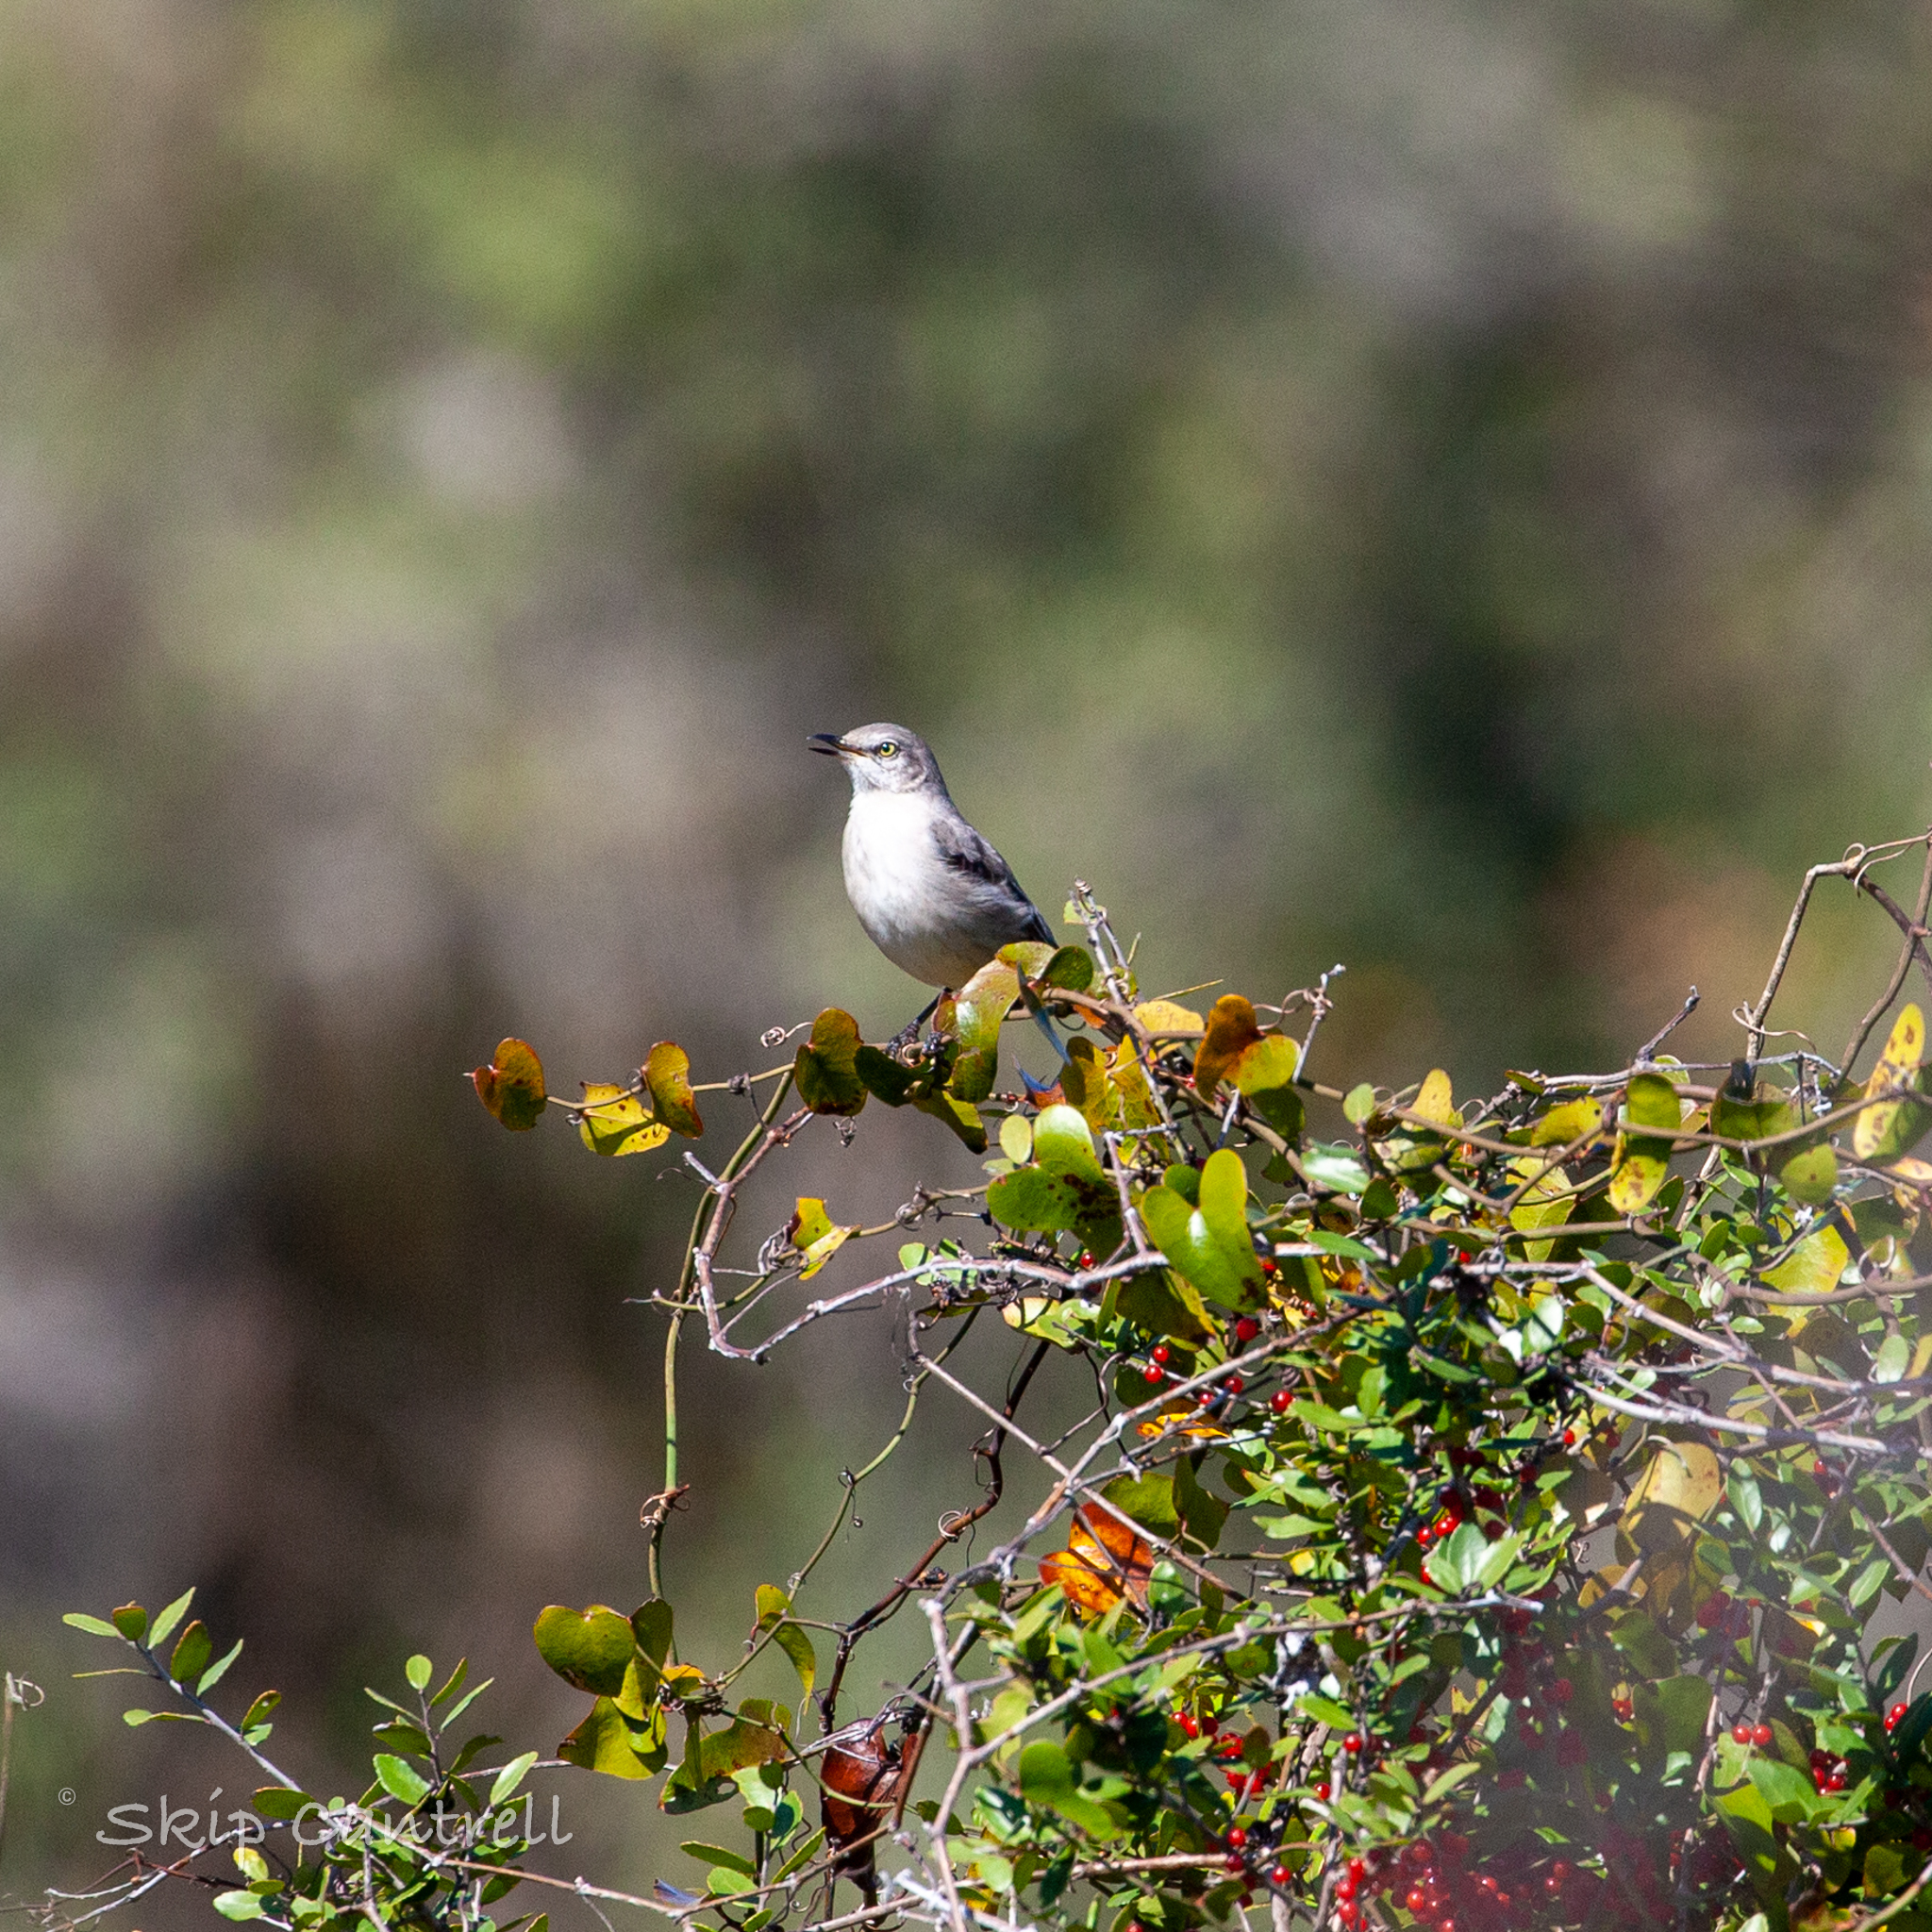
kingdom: Animalia
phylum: Chordata
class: Aves
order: Passeriformes
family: Mimidae
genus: Mimus
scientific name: Mimus polyglottos
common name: Northern mockingbird
